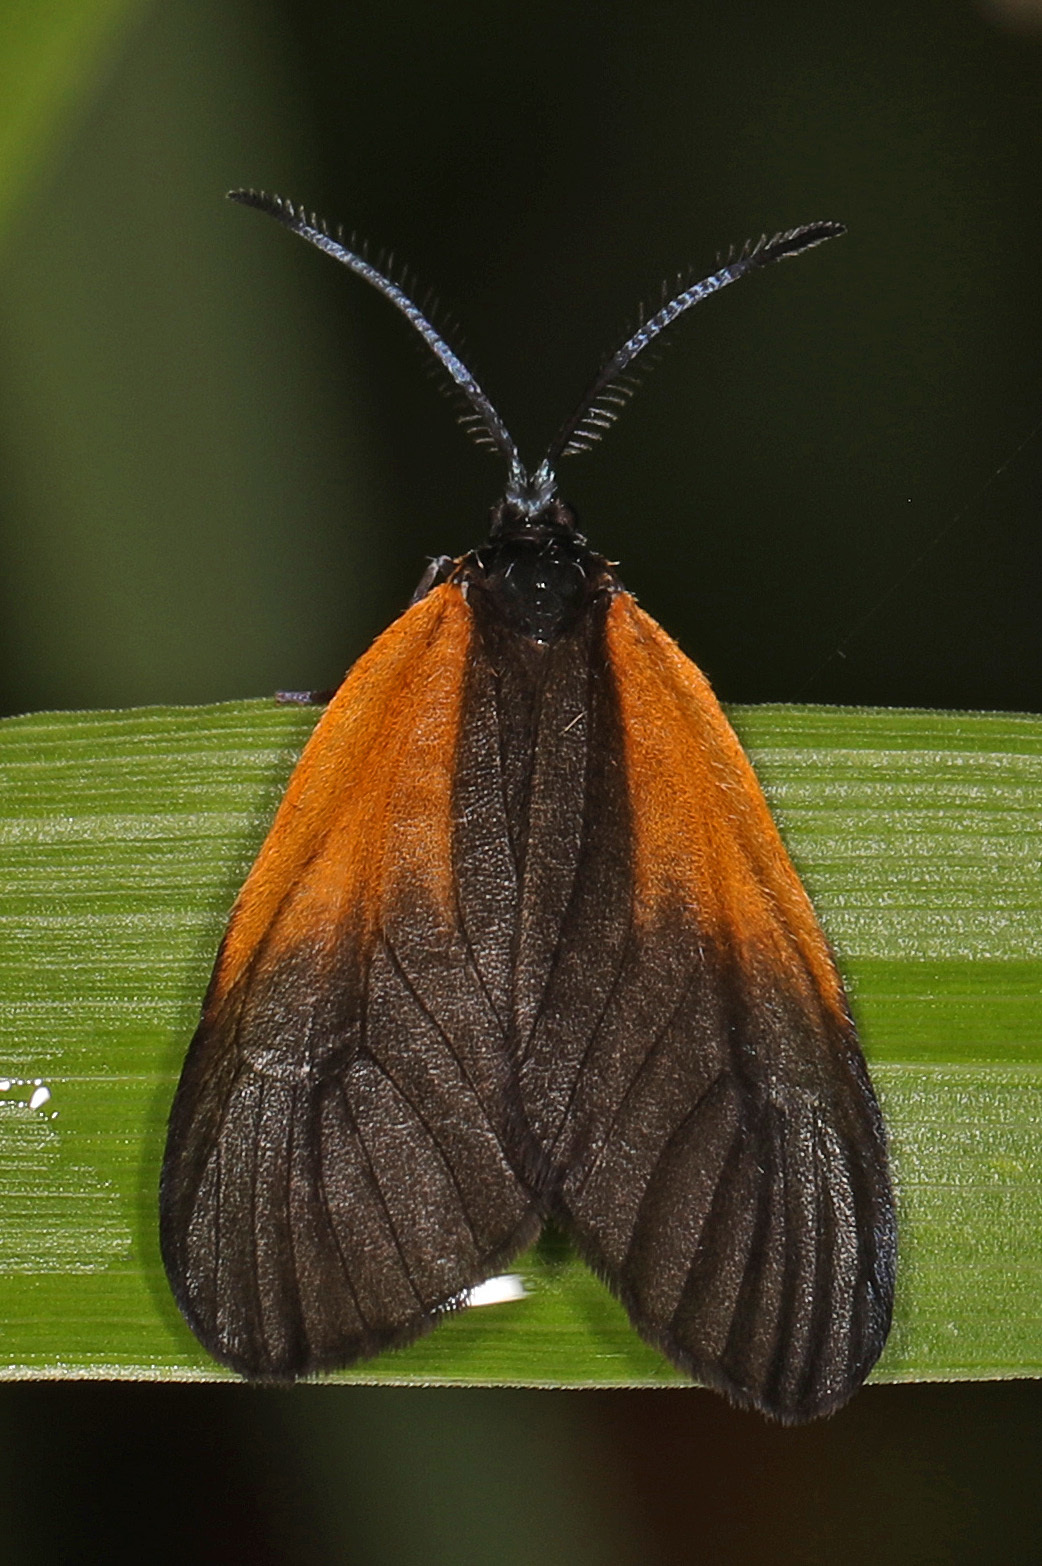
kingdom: Animalia
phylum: Arthropoda
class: Insecta
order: Lepidoptera
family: Zygaenidae
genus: Malthaca
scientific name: Malthaca dimidiata
